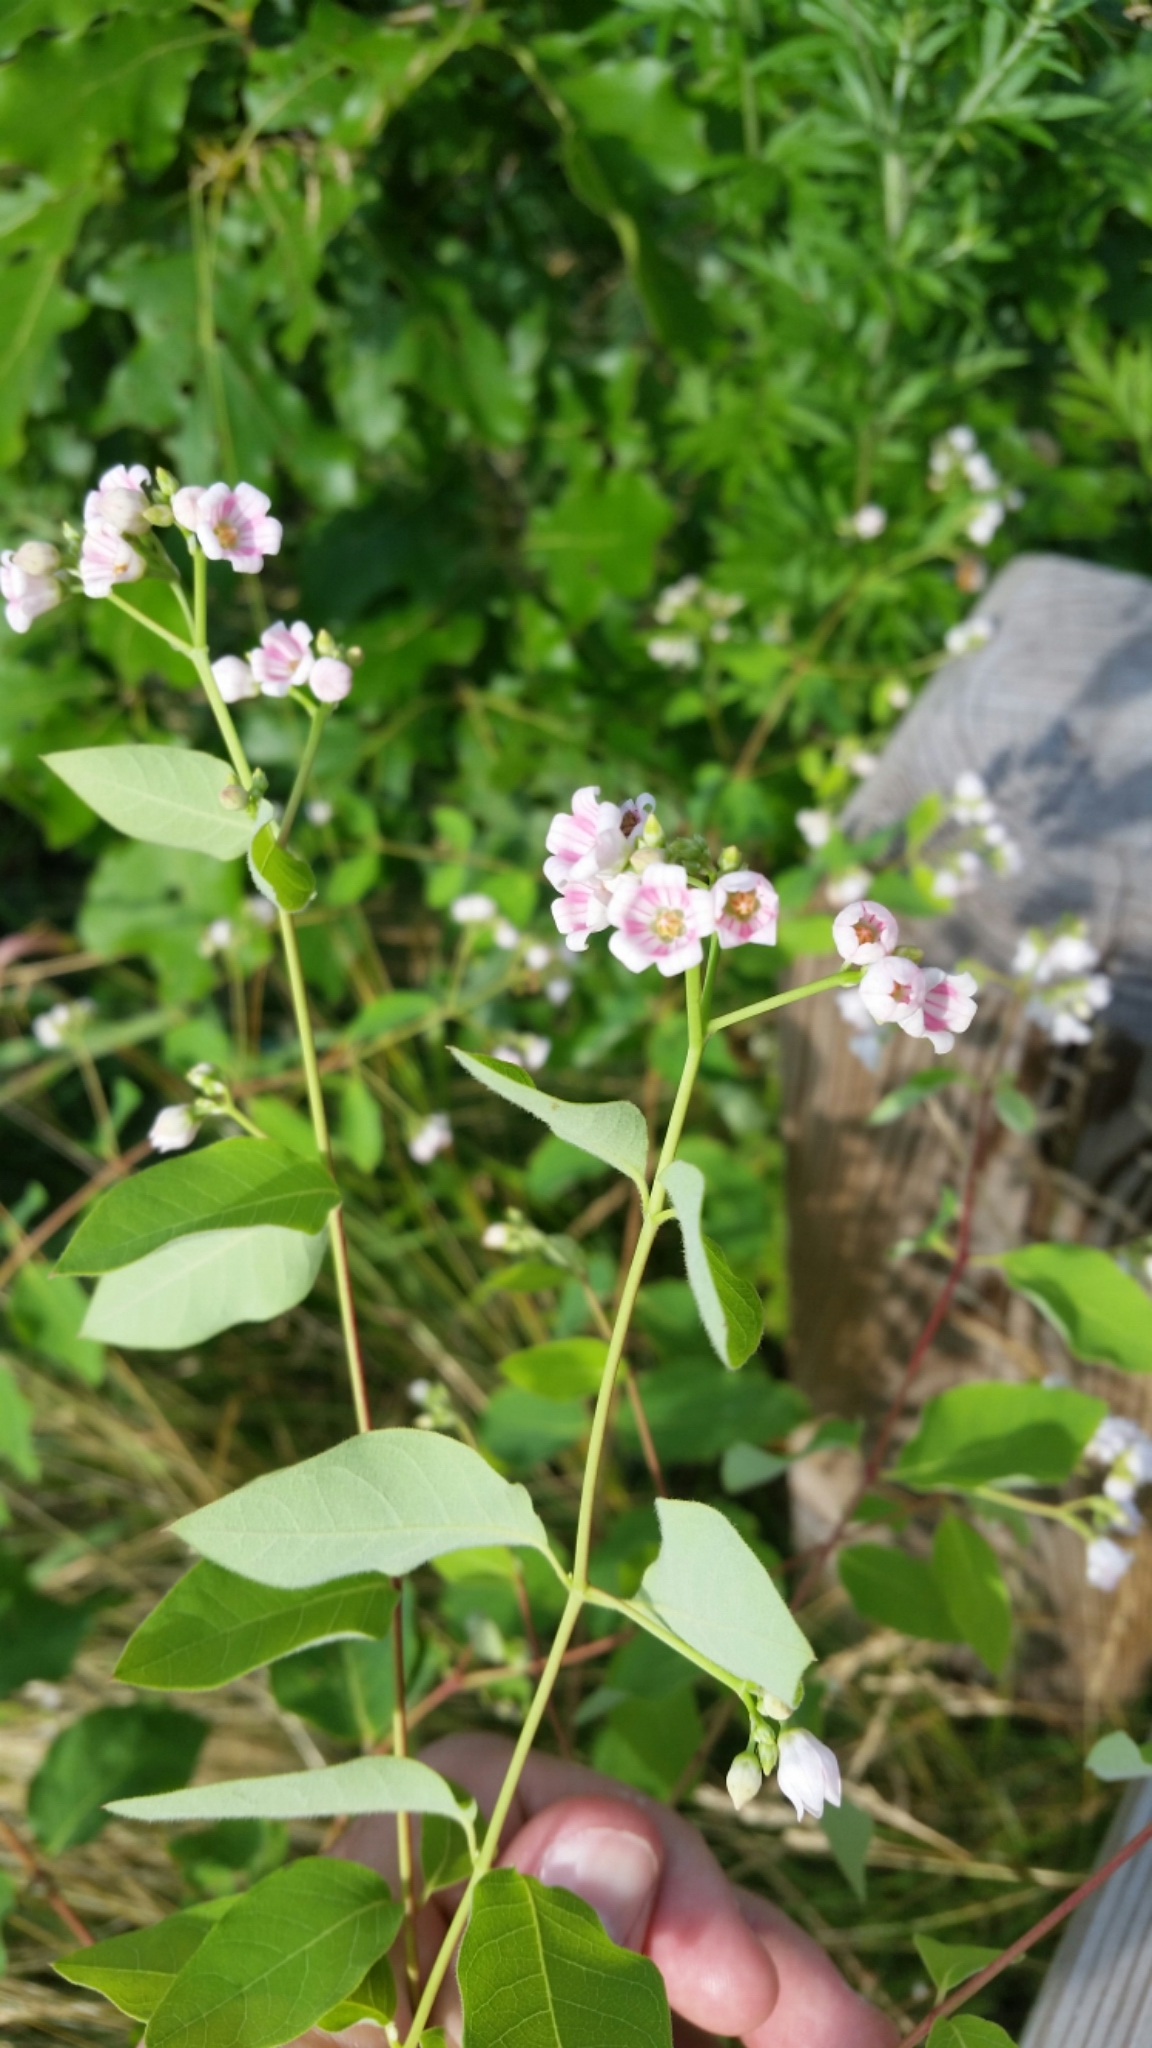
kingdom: Plantae
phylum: Tracheophyta
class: Magnoliopsida
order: Gentianales
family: Apocynaceae
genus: Apocynum
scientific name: Apocynum androsaemifolium
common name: Spreading dogbane
